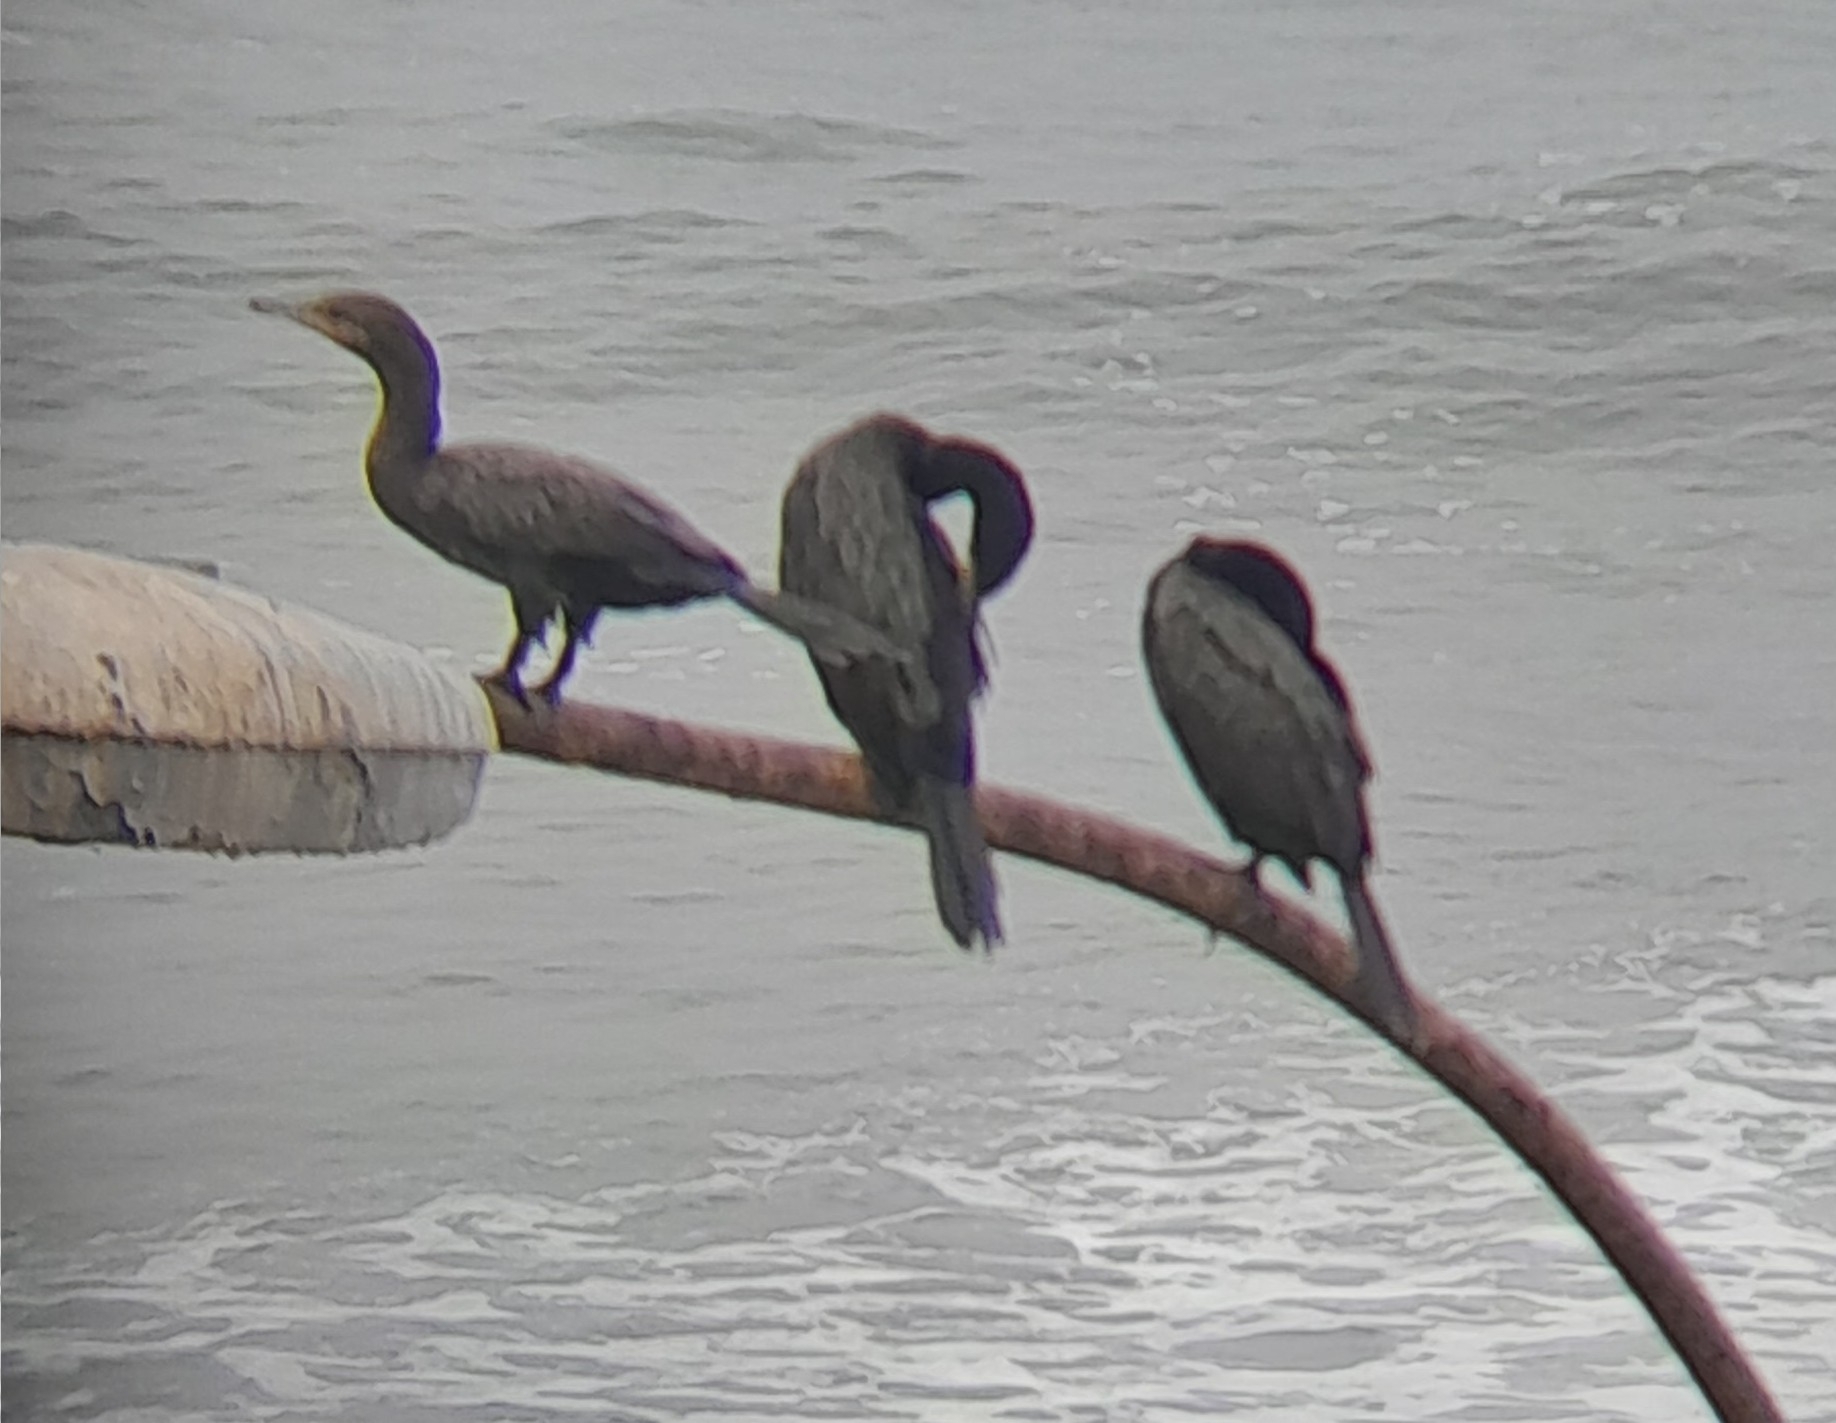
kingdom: Animalia
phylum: Chordata
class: Aves
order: Suliformes
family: Phalacrocoracidae
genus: Phalacrocorax
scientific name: Phalacrocorax brasilianus
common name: Neotropic cormorant
